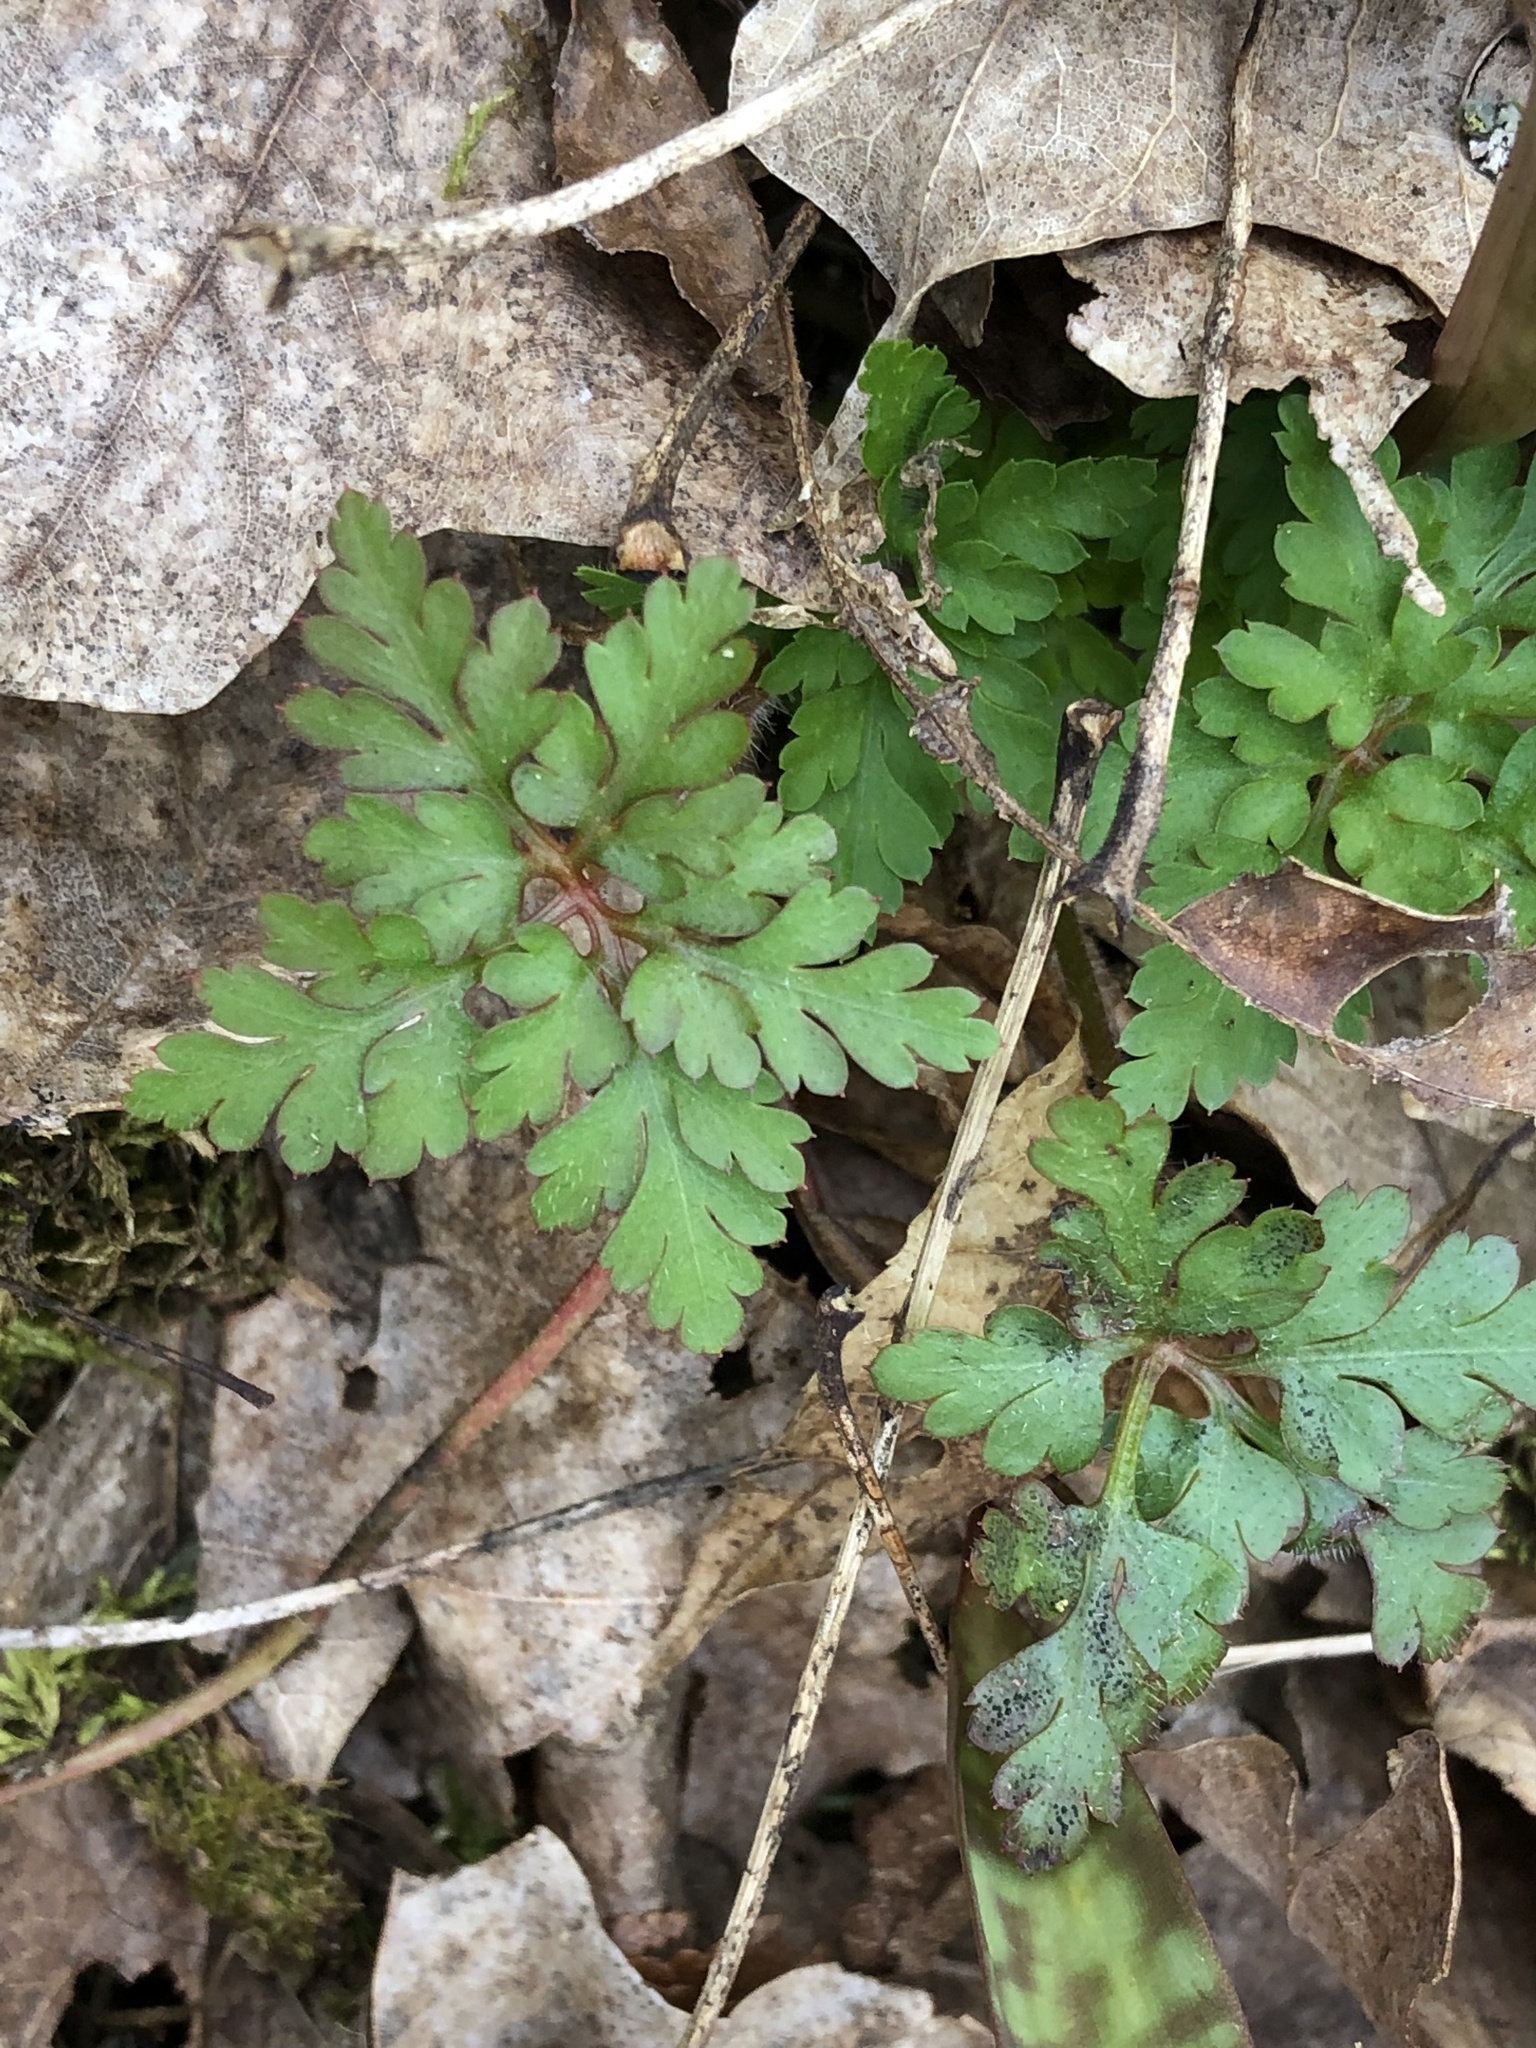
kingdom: Plantae
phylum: Tracheophyta
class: Magnoliopsida
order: Geraniales
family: Geraniaceae
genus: Geranium
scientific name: Geranium robertianum
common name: Herb-robert
